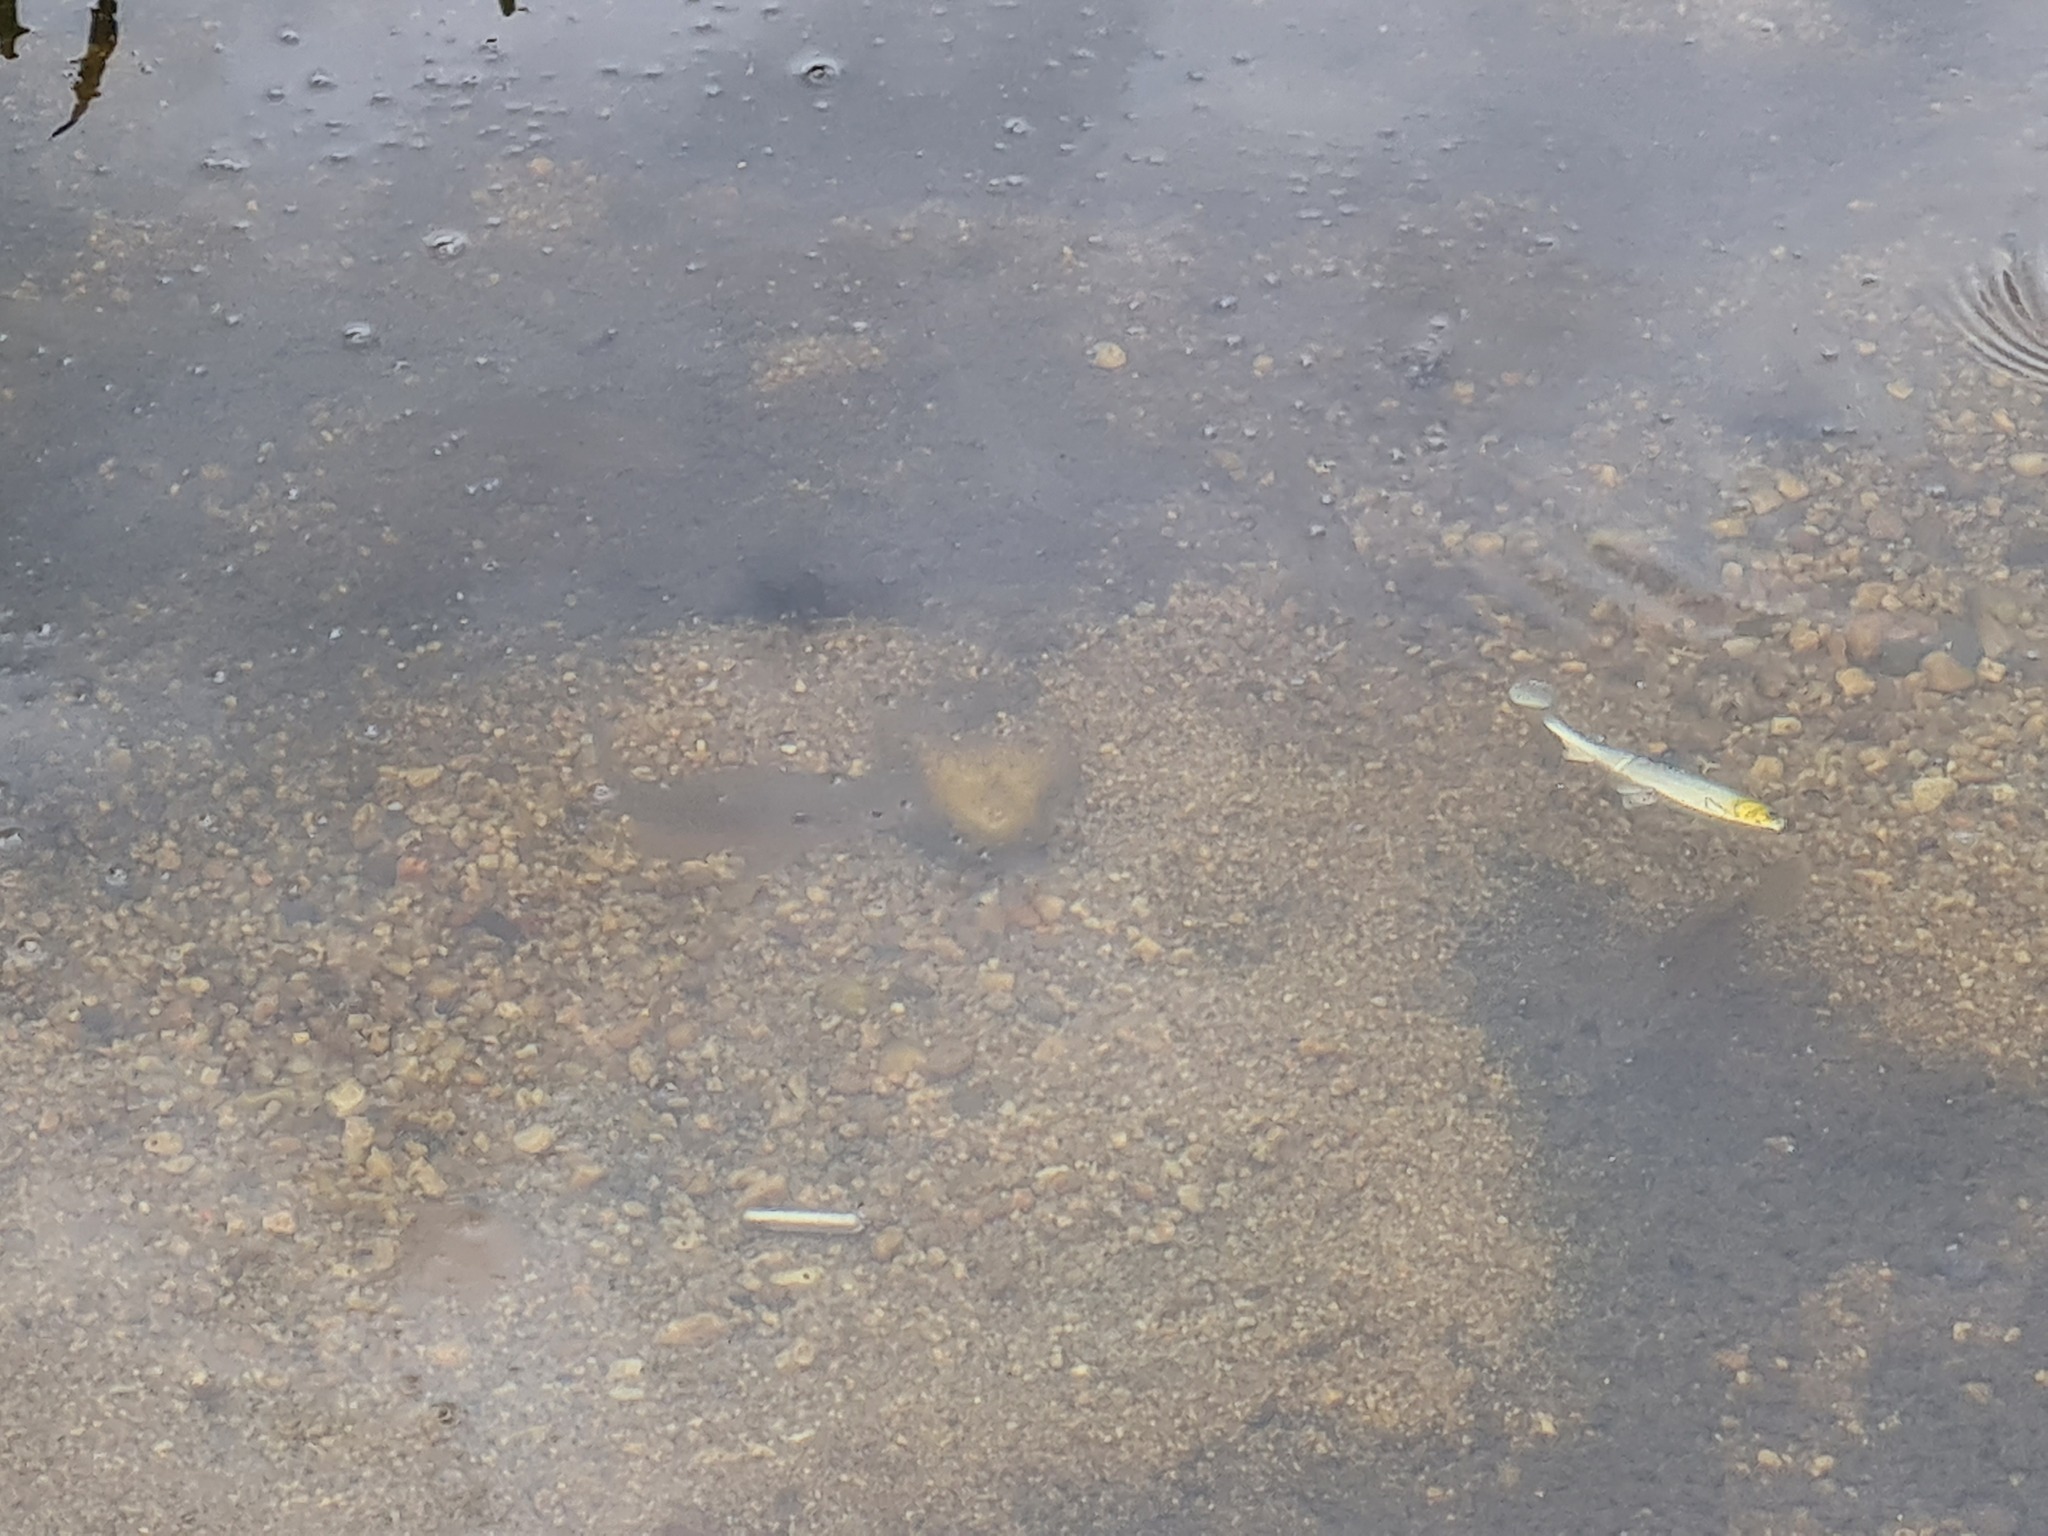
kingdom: Animalia
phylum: Chordata
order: Perciformes
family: Centrarchidae
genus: Lepomis
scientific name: Lepomis gibbosus
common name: Pumpkinseed
